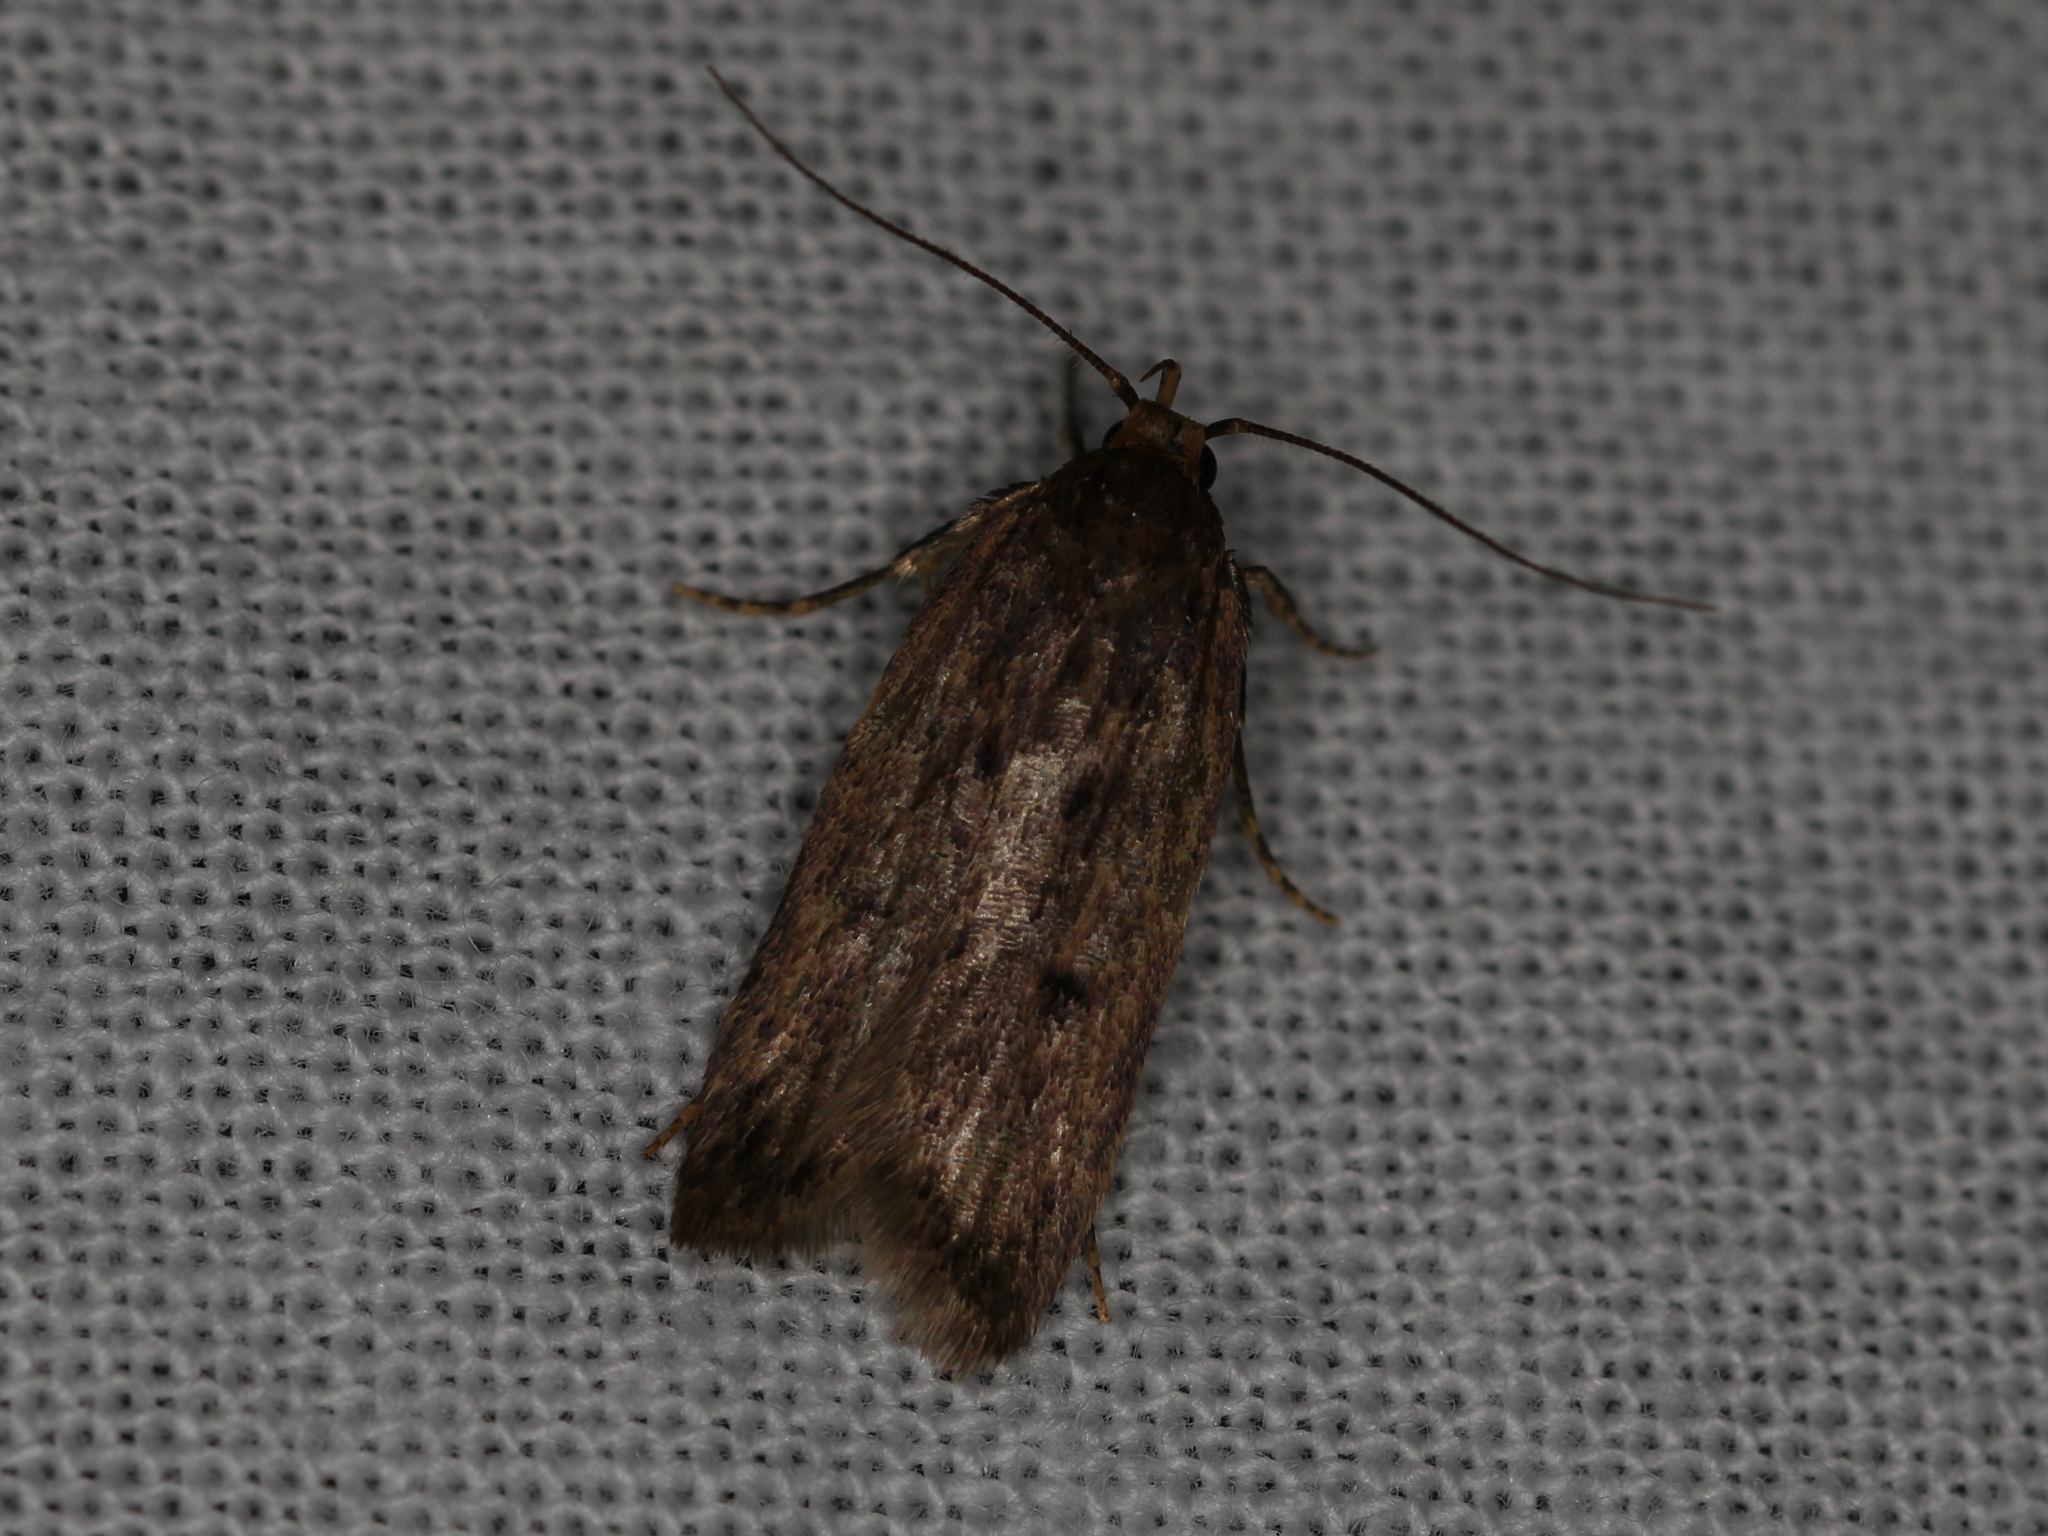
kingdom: Animalia
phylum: Arthropoda
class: Insecta
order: Lepidoptera
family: Oecophoridae
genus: Hofmannophila
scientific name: Hofmannophila pseudospretella
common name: Brown house moth
